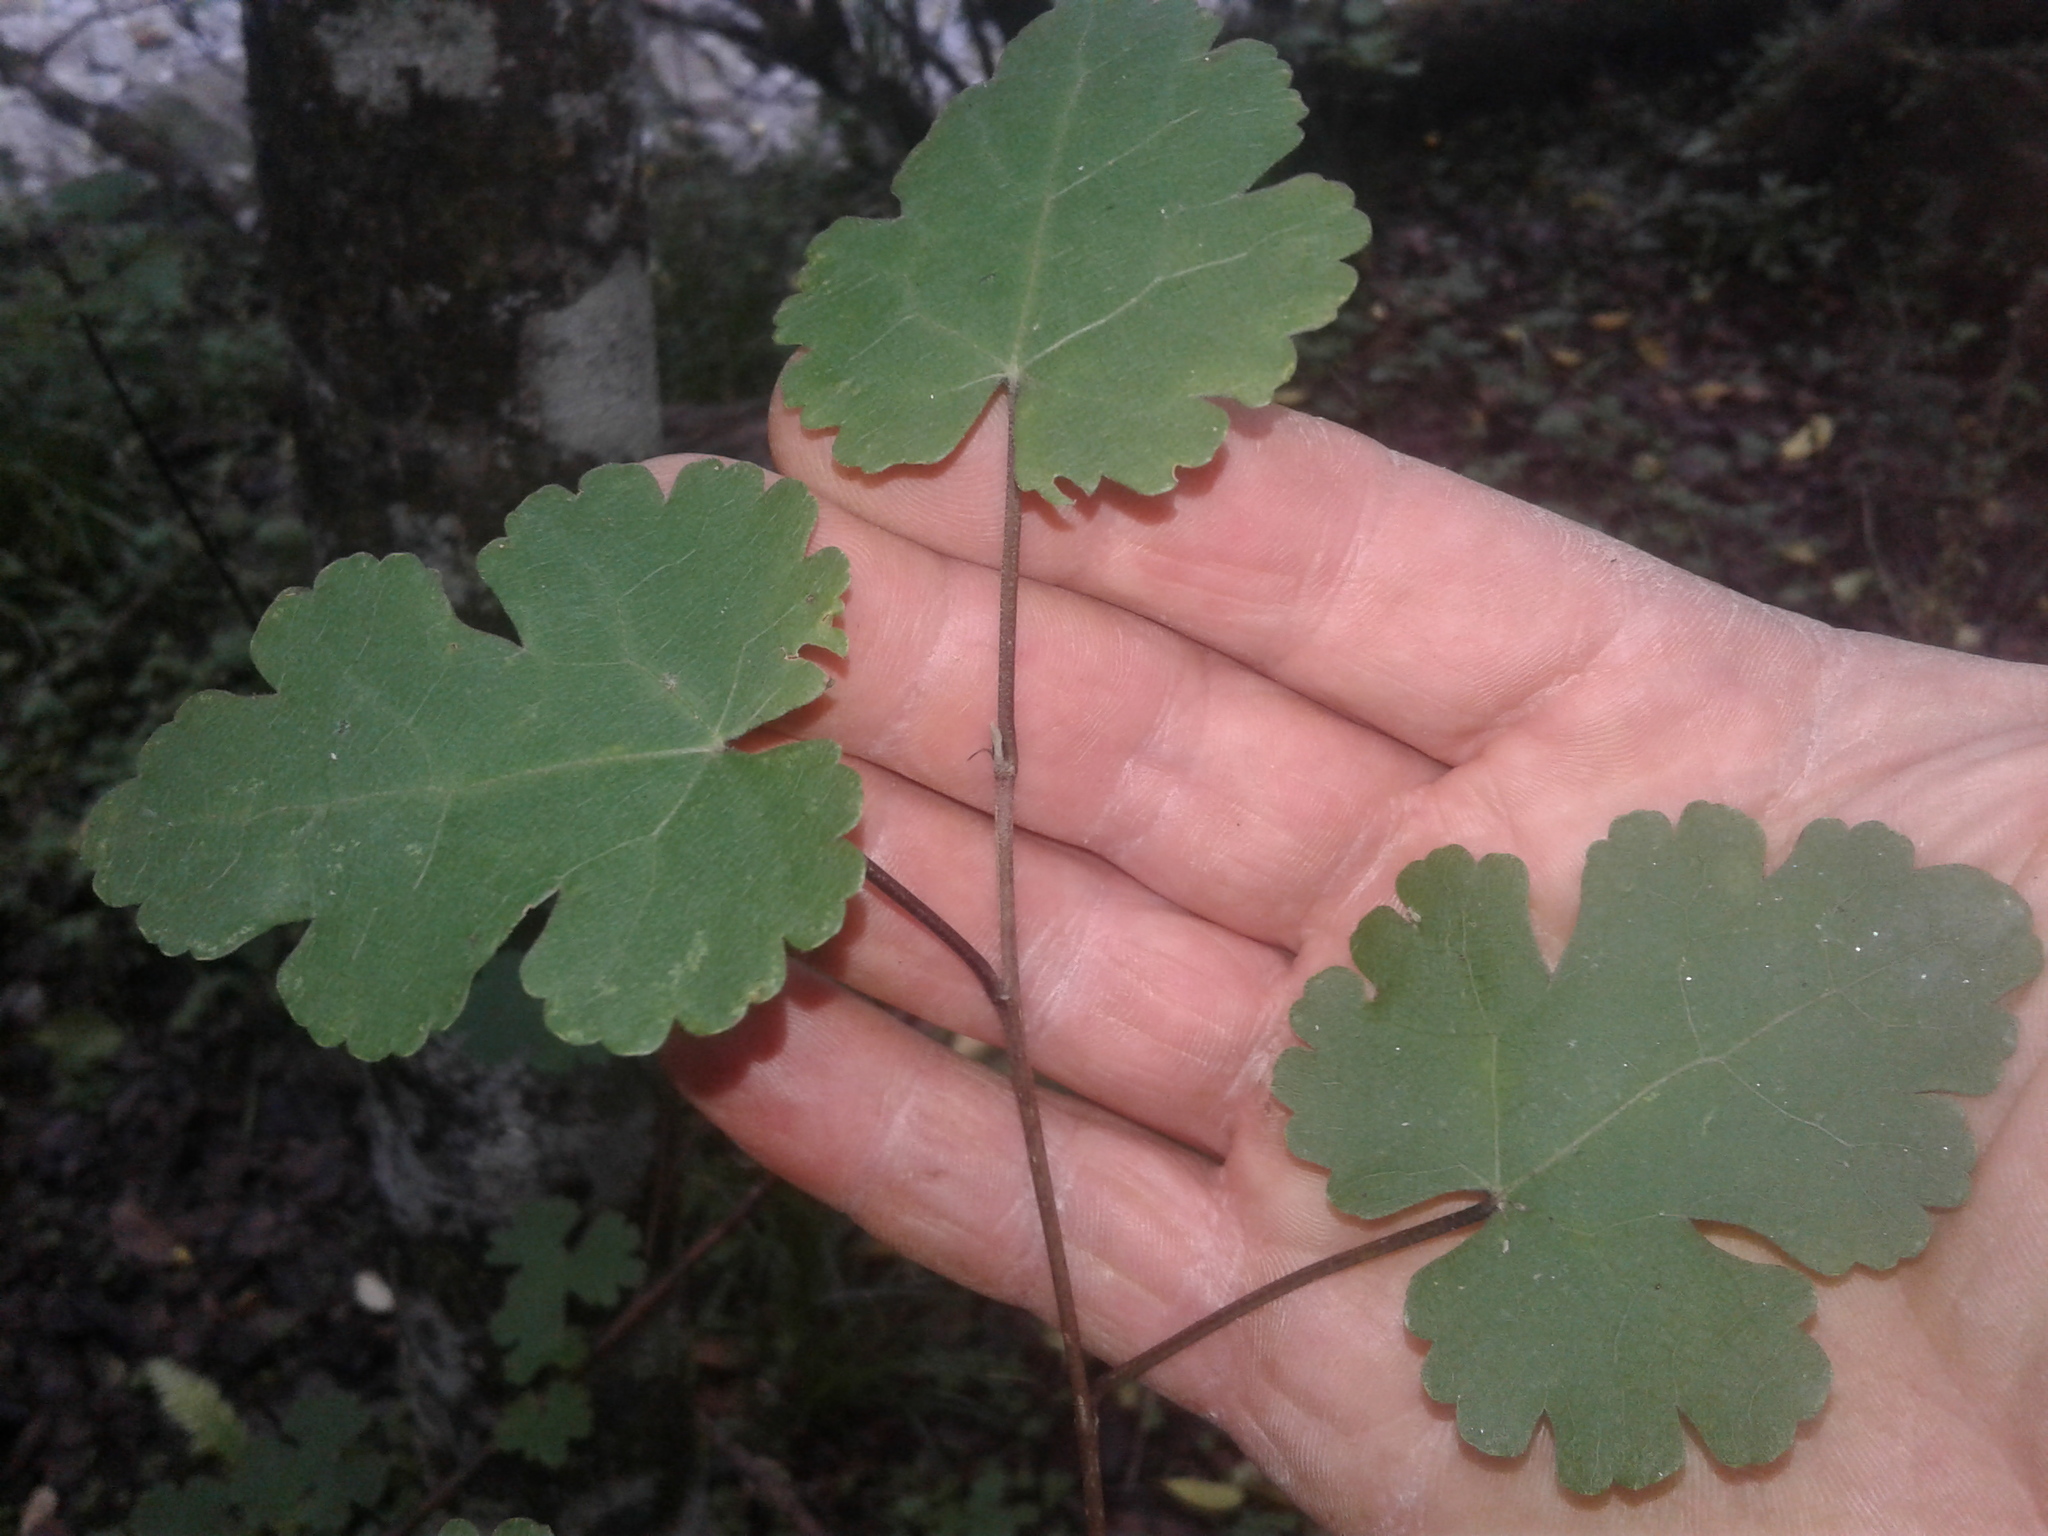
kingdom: Plantae
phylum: Tracheophyta
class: Magnoliopsida
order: Malvales
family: Malvaceae
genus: Hoheria
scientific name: Hoheria glabrata
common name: Mountain-ribbon
